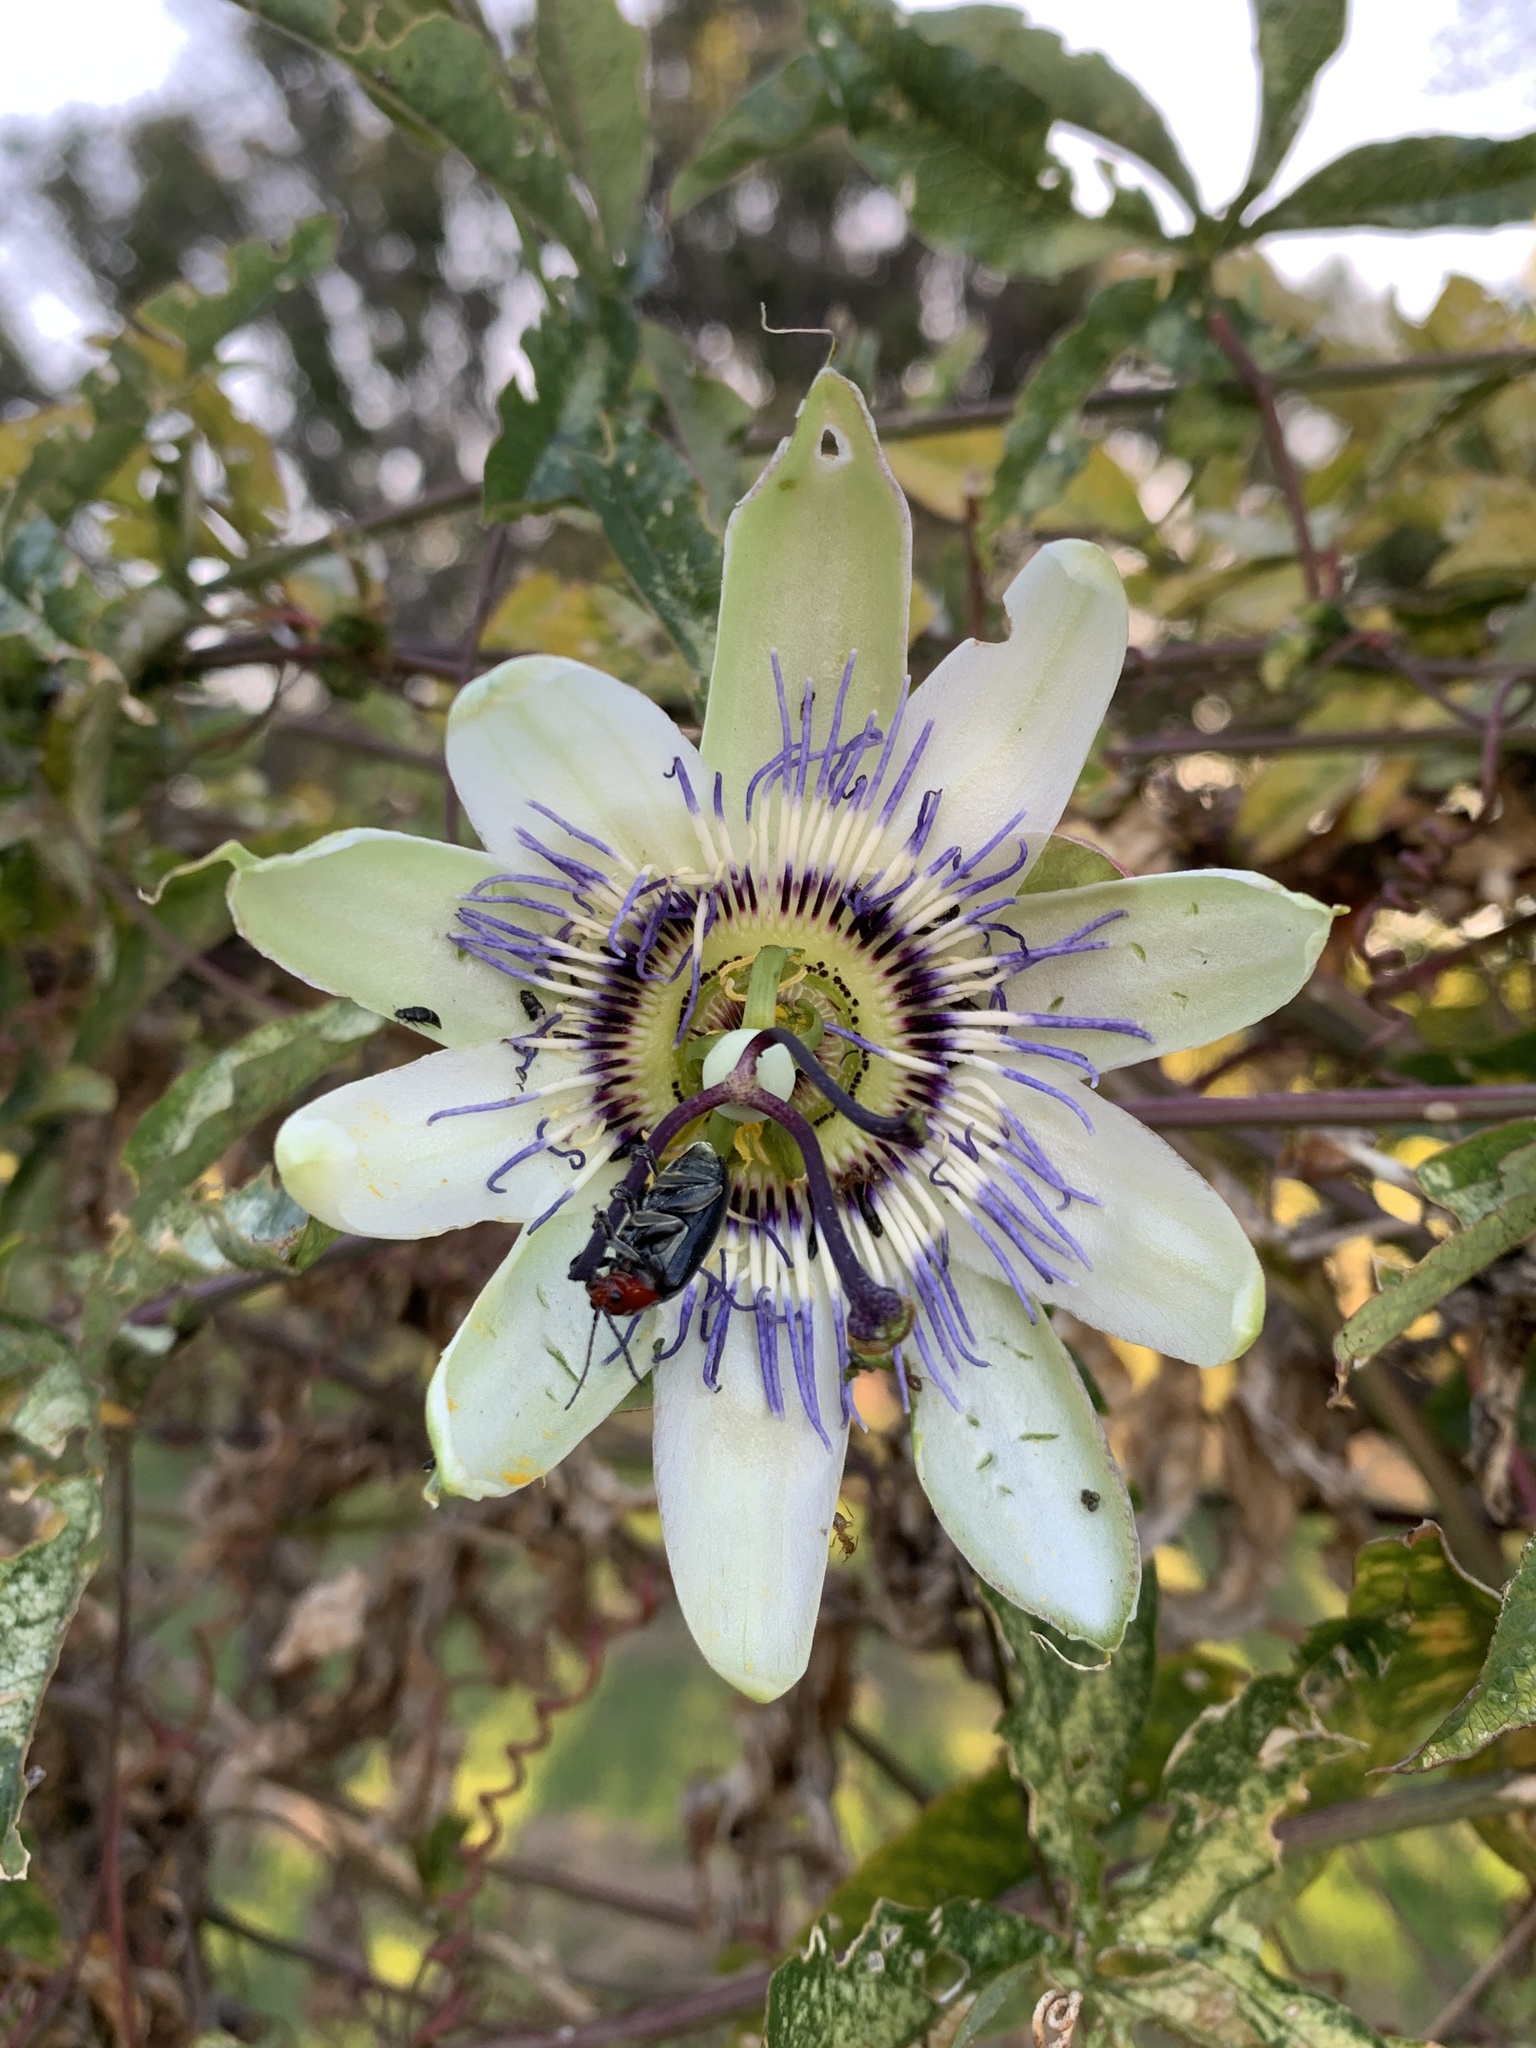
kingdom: Plantae
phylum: Tracheophyta
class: Magnoliopsida
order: Malpighiales
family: Passifloraceae
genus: Passiflora
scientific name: Passiflora caerulea
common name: Blue passionflower
